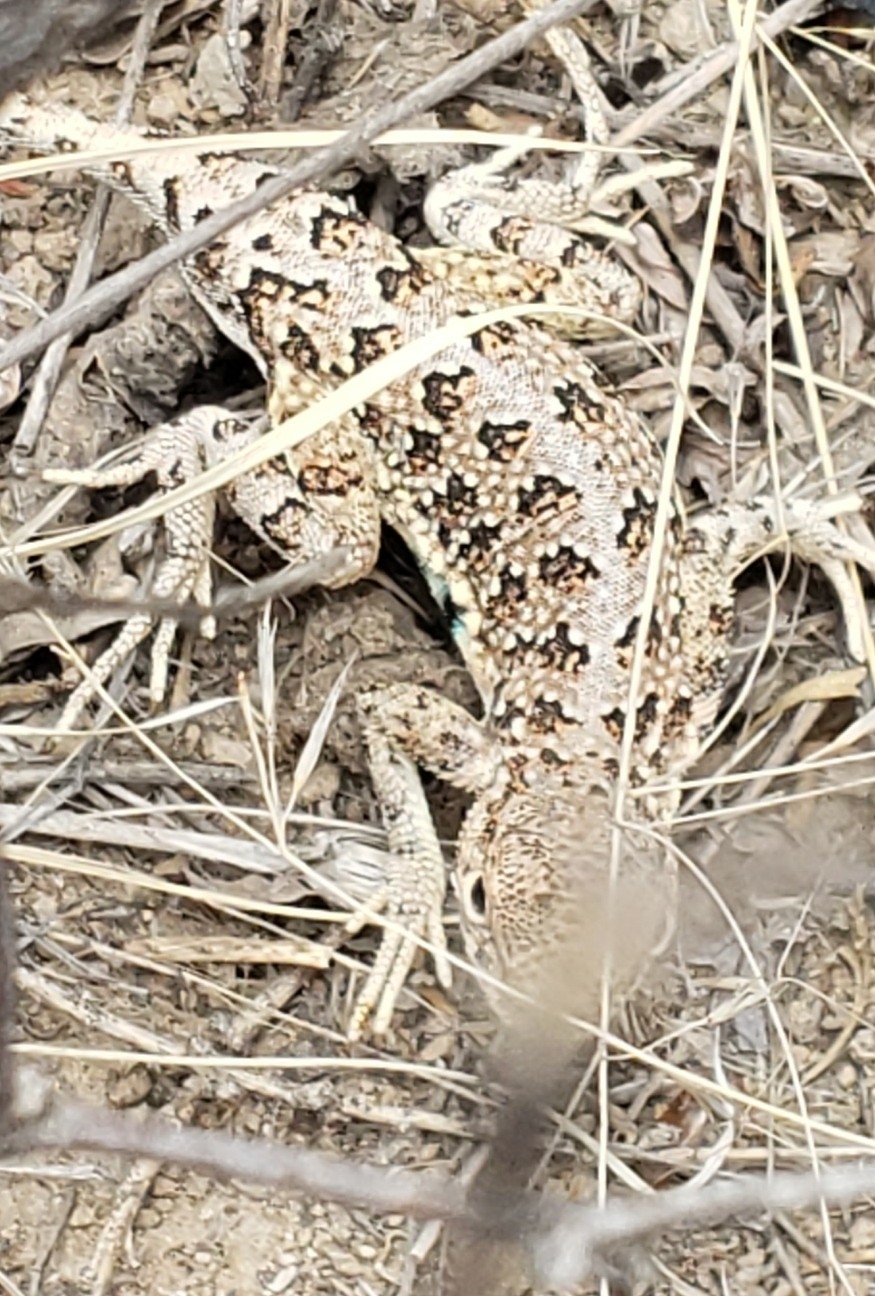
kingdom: Animalia
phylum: Chordata
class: Squamata
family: Phrynosomatidae
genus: Holbrookia
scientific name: Holbrookia maculata
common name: Lesser earless lizard
